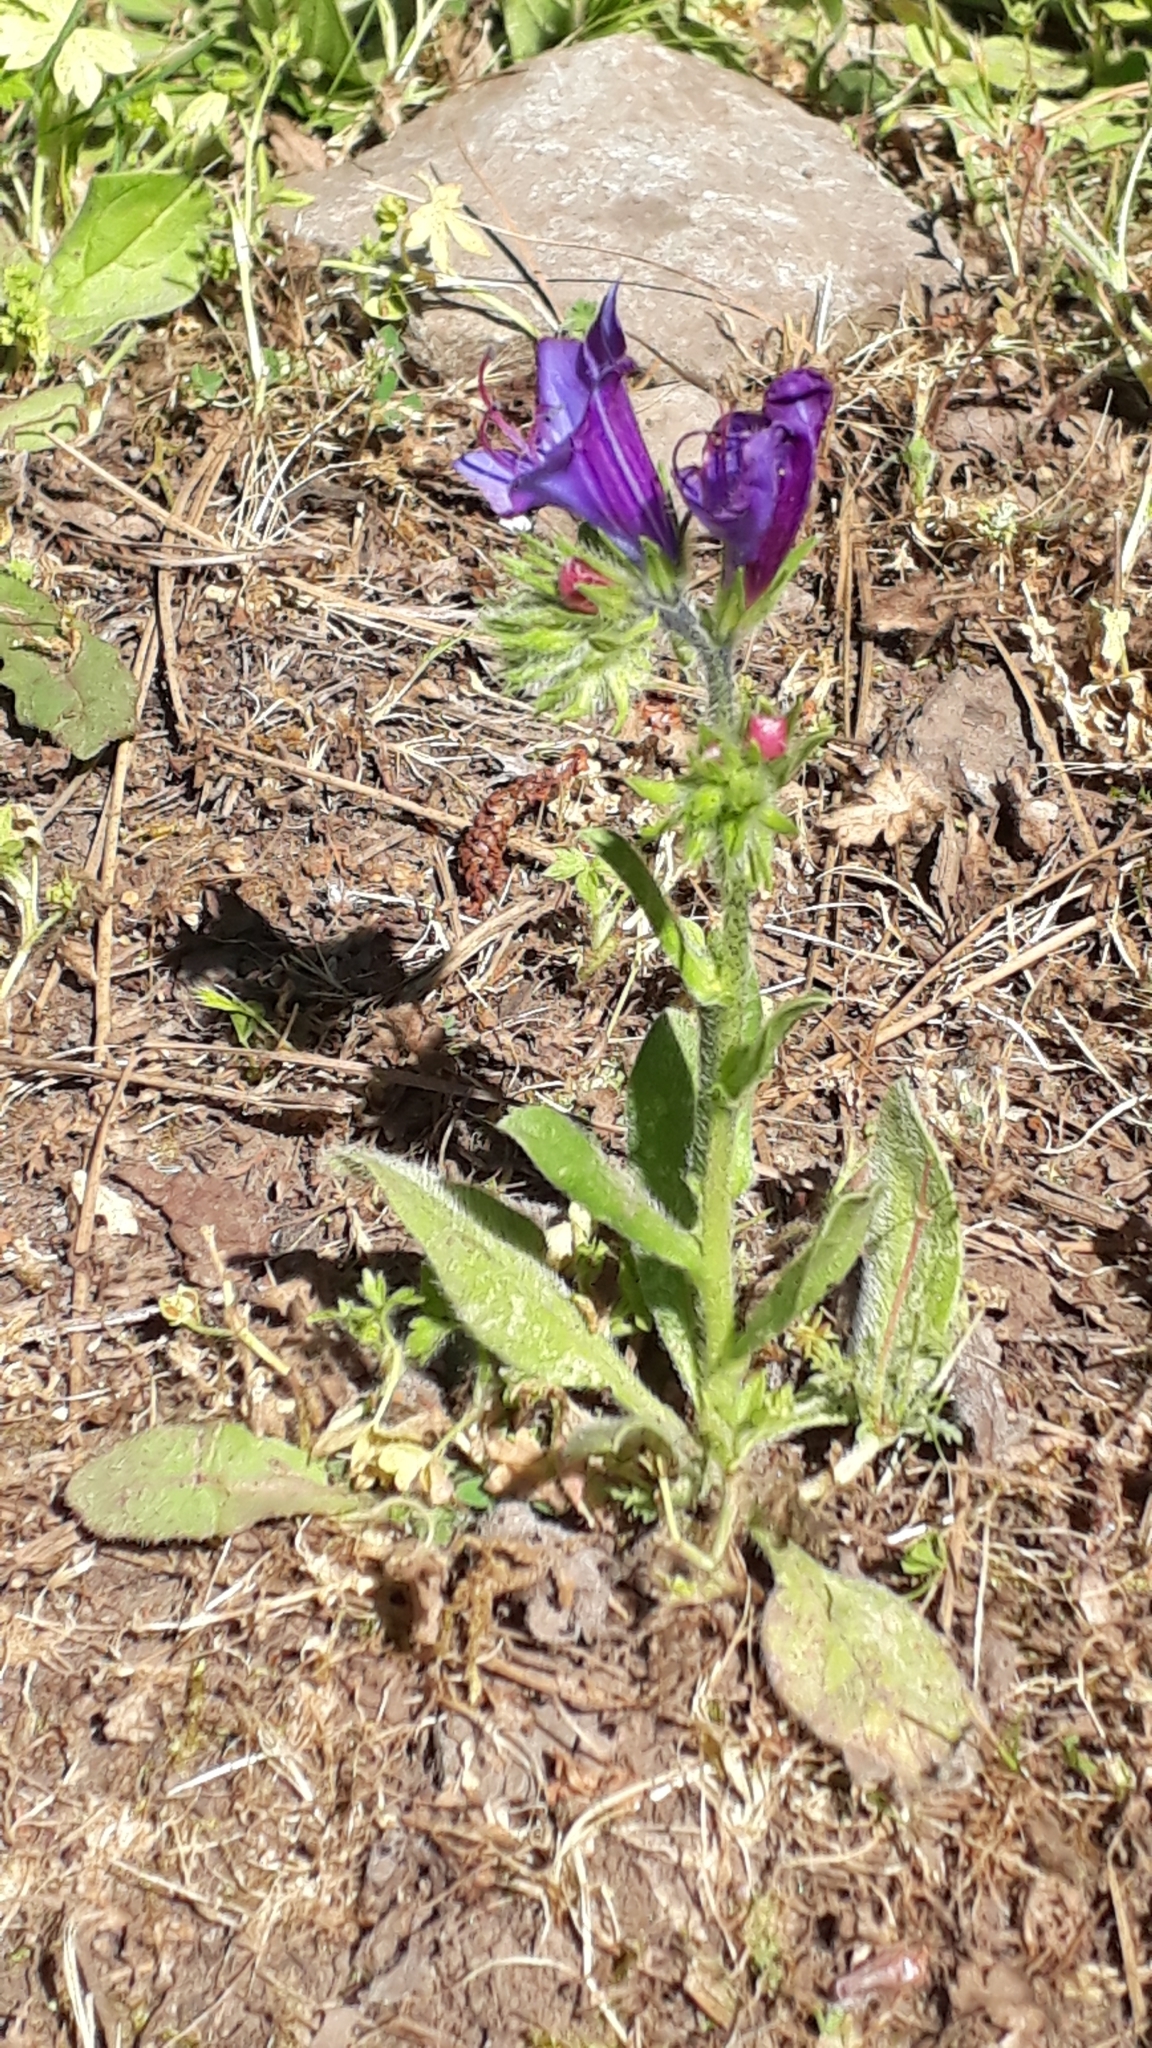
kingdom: Plantae
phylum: Tracheophyta
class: Magnoliopsida
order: Boraginales
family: Boraginaceae
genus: Echium
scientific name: Echium plantagineum
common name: Purple viper's-bugloss
